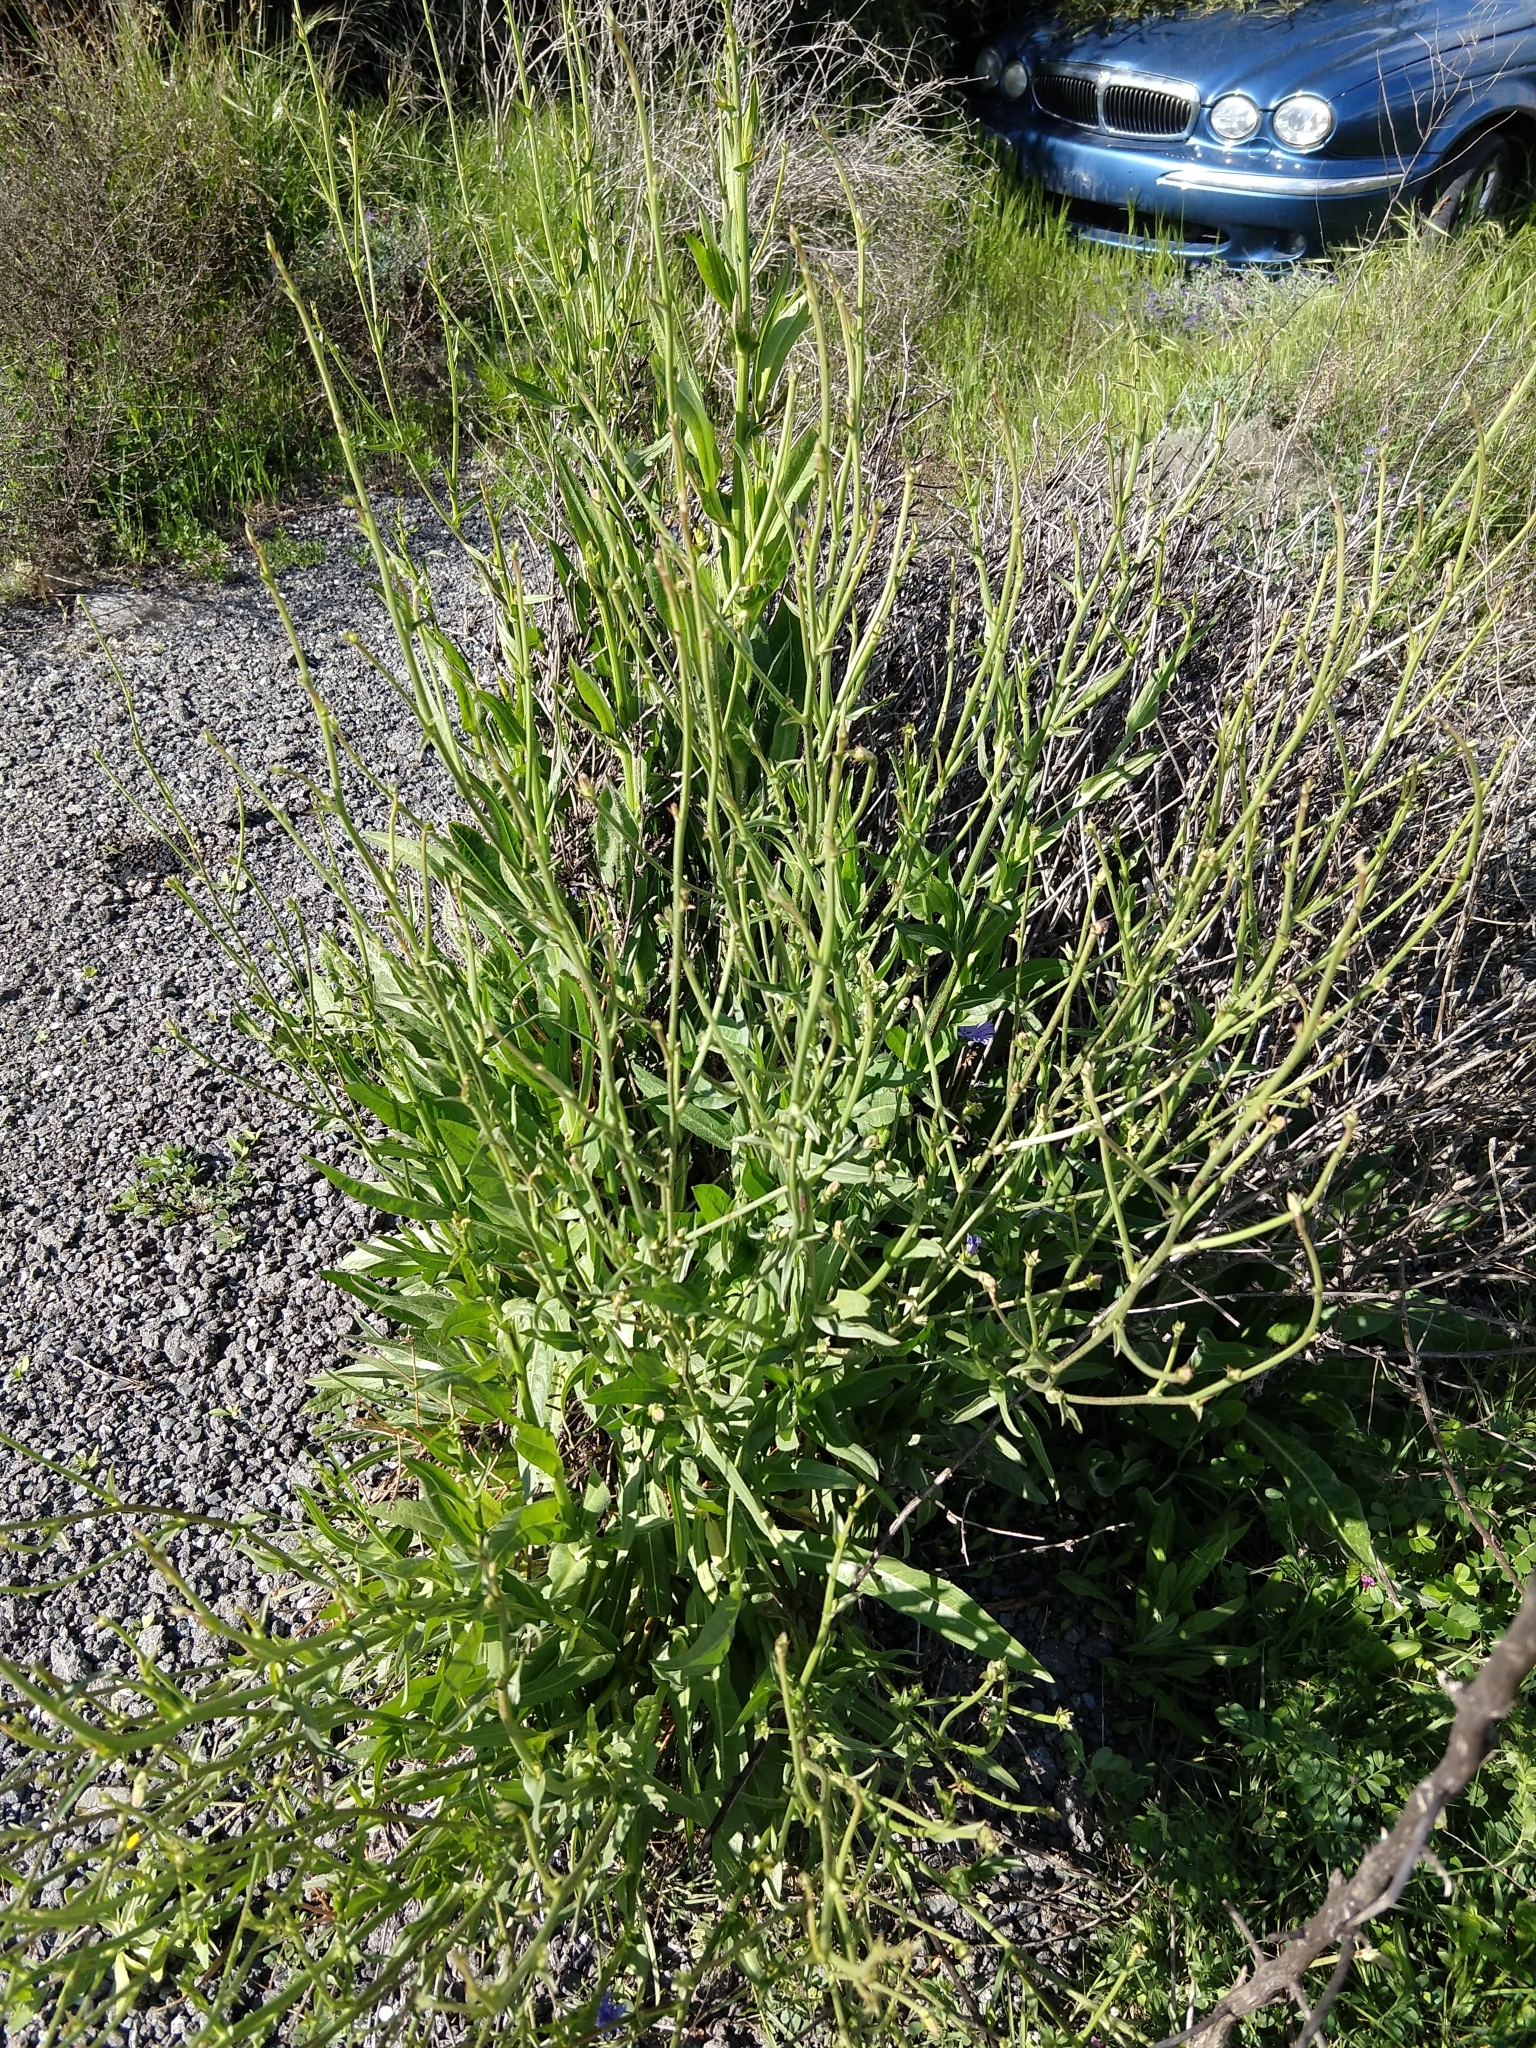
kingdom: Plantae
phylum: Tracheophyta
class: Magnoliopsida
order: Asterales
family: Asteraceae
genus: Cichorium
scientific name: Cichorium intybus
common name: Chicory
